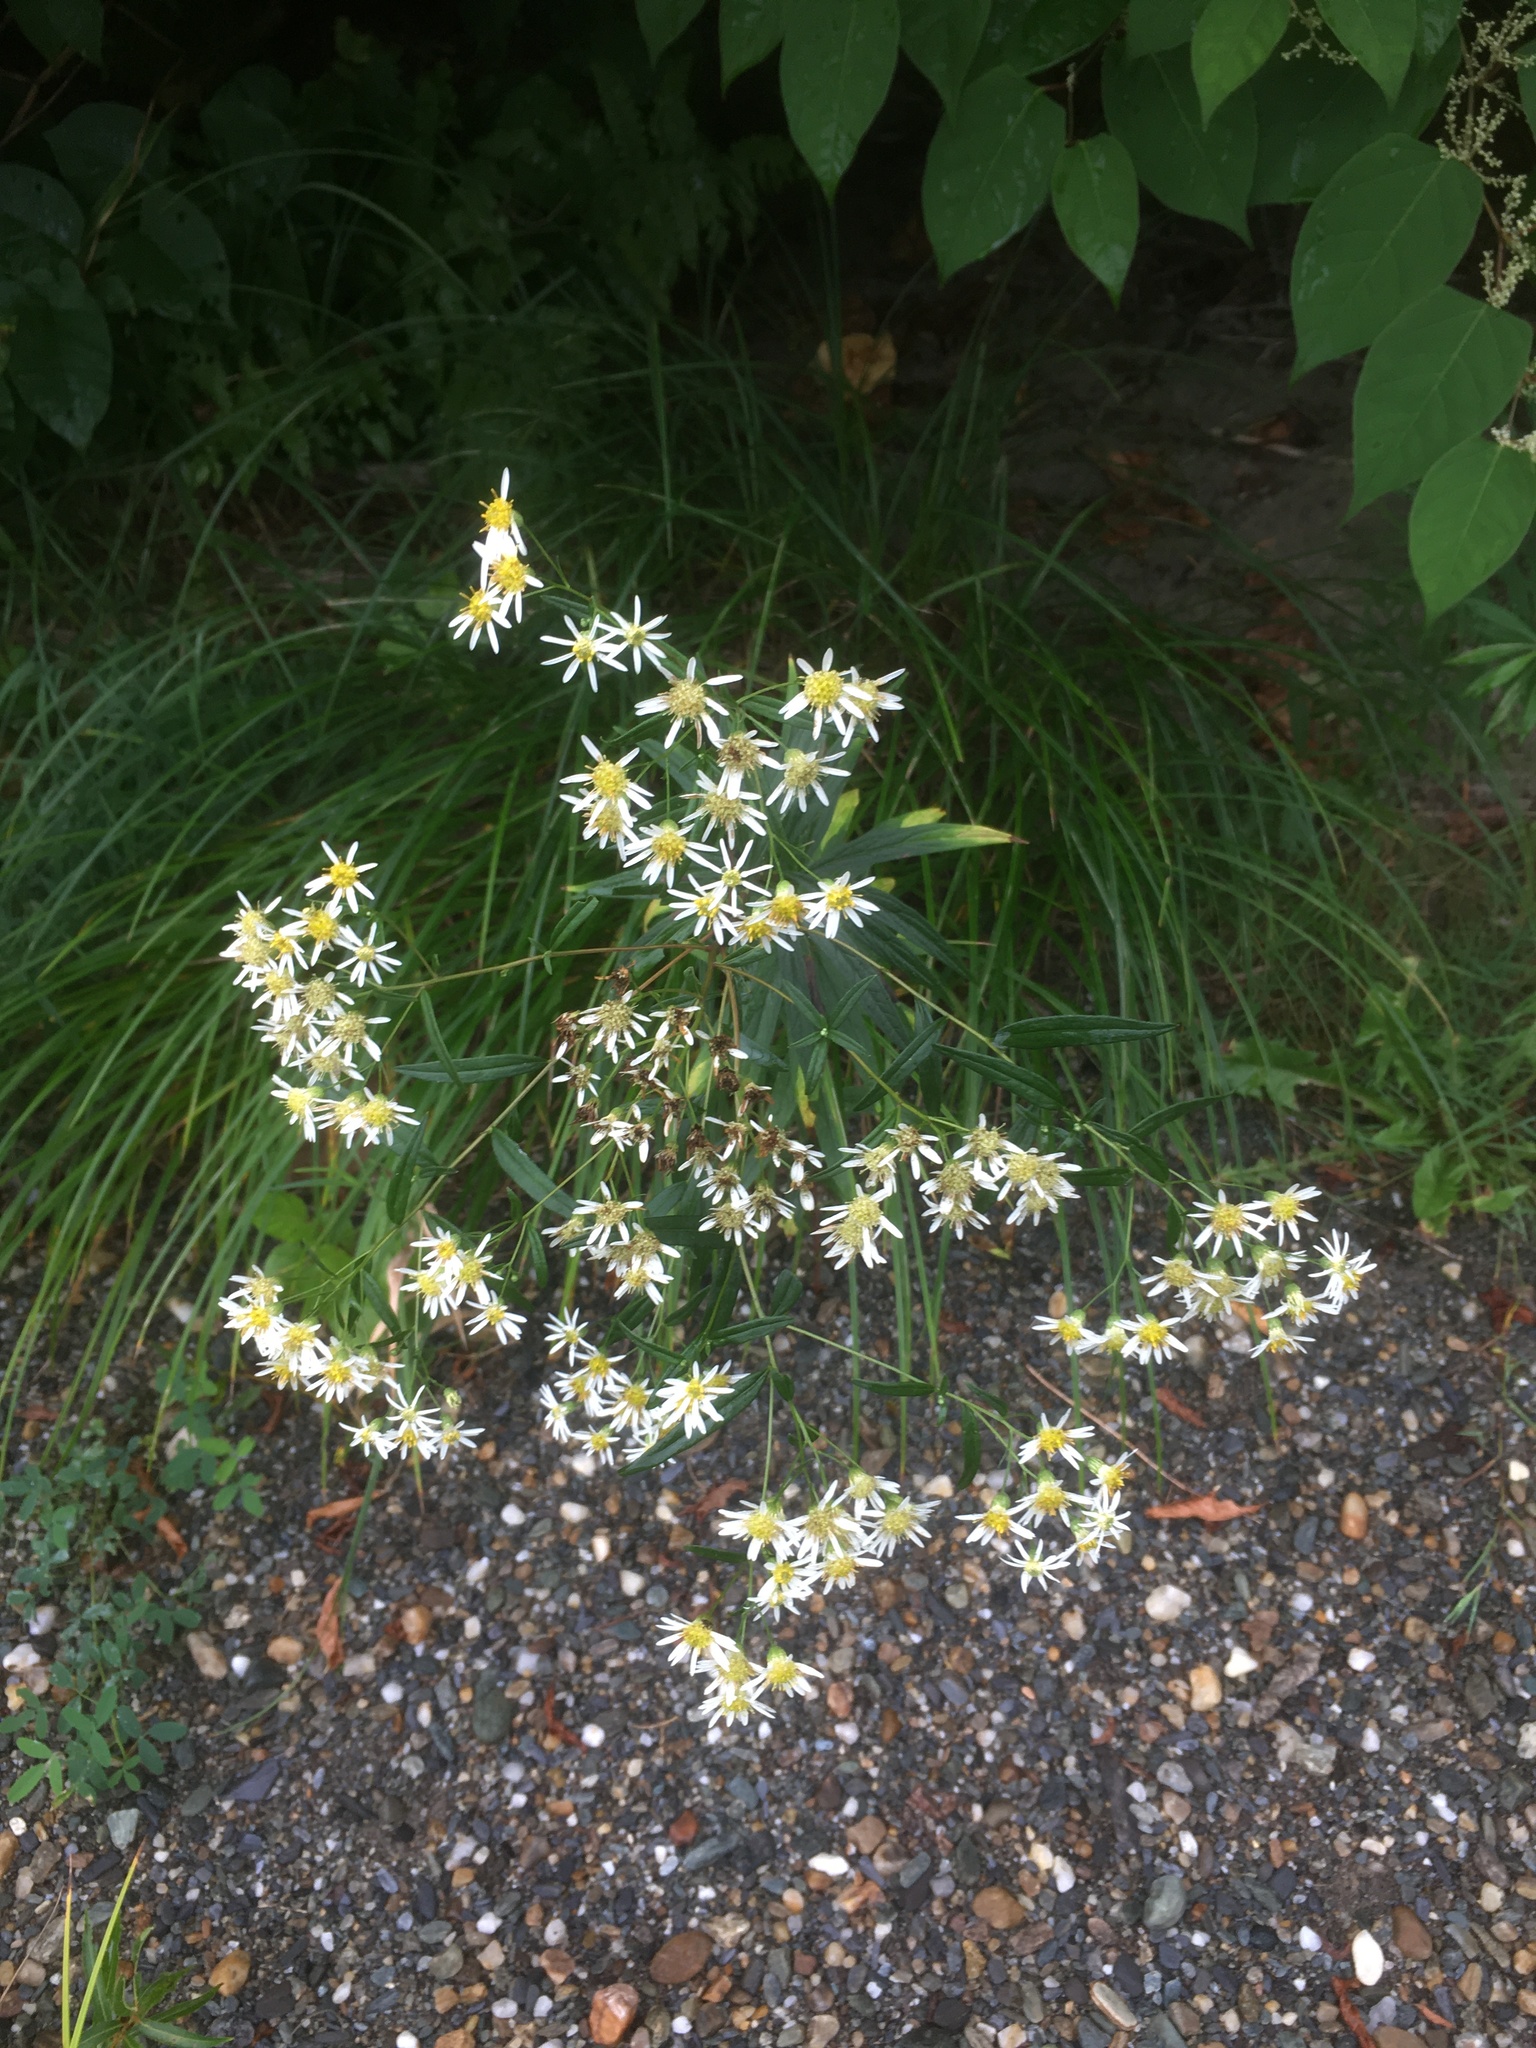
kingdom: Plantae
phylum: Tracheophyta
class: Magnoliopsida
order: Asterales
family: Asteraceae
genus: Doellingeria
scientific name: Doellingeria umbellata
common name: Flat-top white aster
